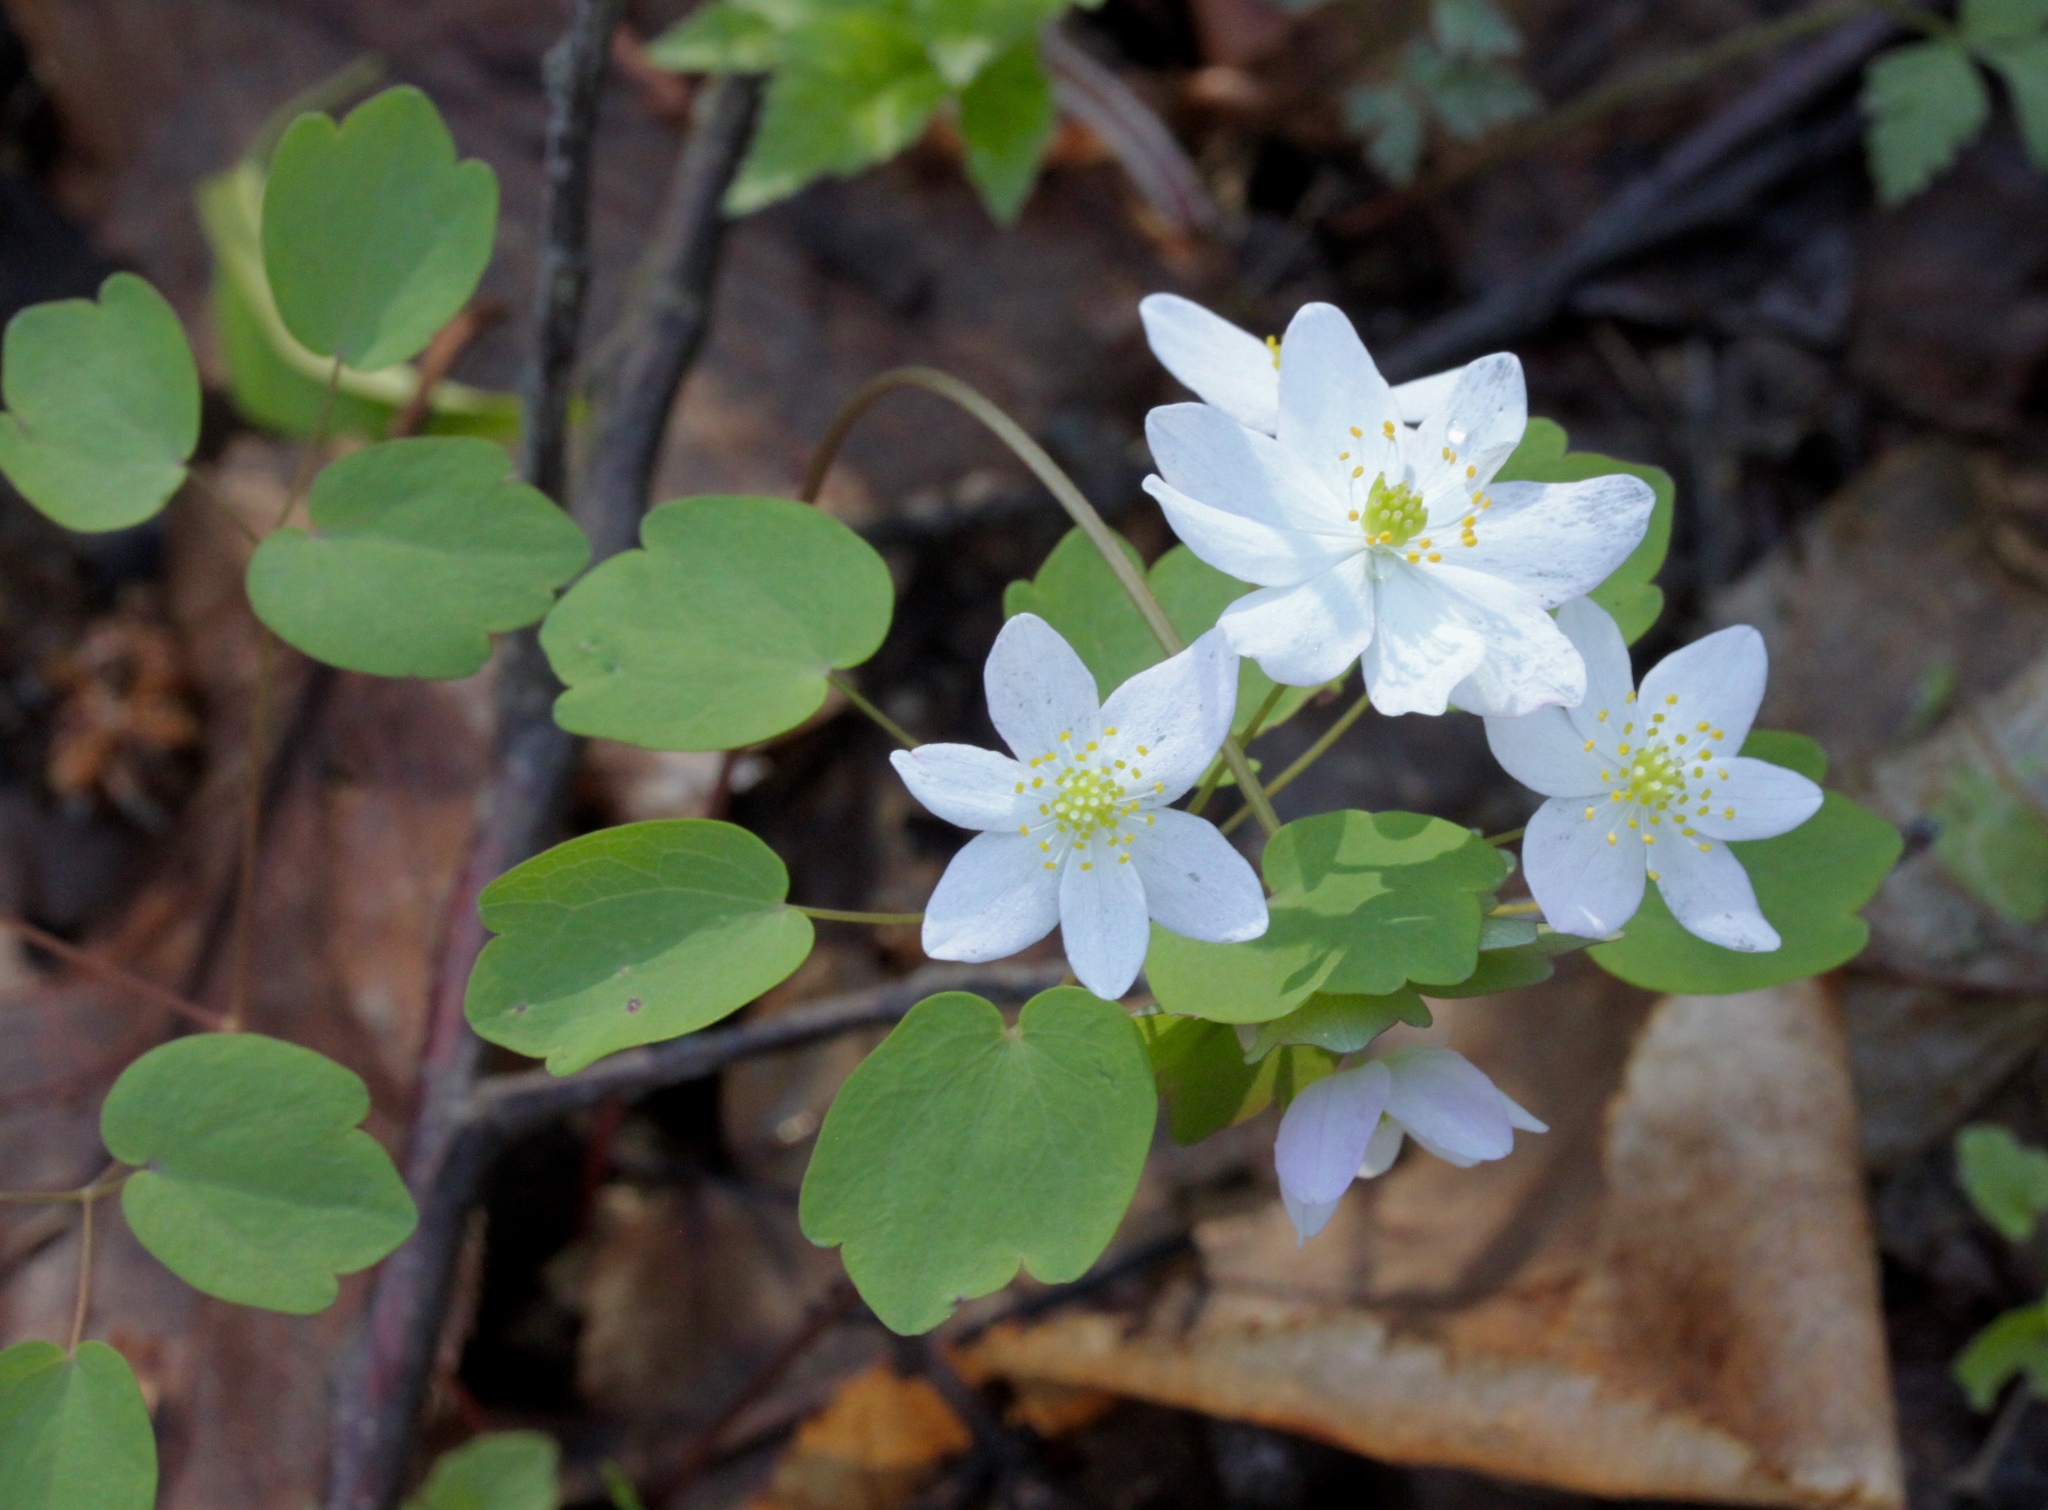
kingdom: Plantae
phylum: Tracheophyta
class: Magnoliopsida
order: Ranunculales
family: Ranunculaceae
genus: Thalictrum
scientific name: Thalictrum thalictroides
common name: Rue-anemone
